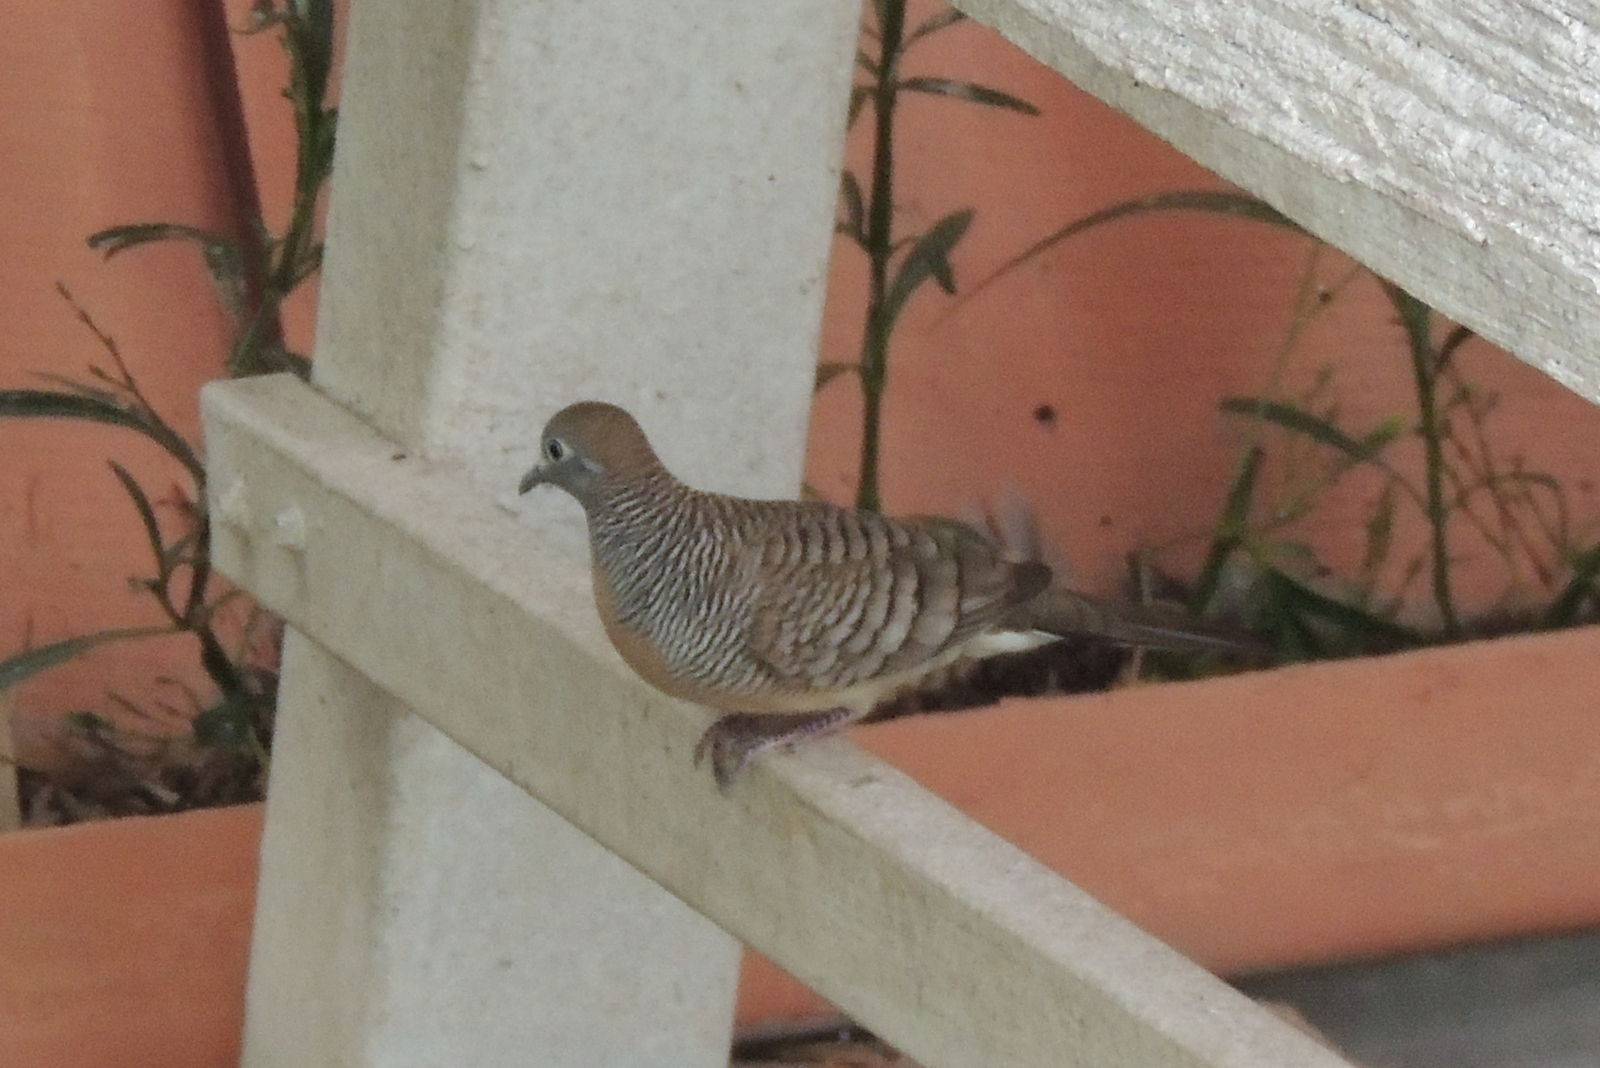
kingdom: Animalia
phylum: Chordata
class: Aves
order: Columbiformes
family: Columbidae
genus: Geopelia
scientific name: Geopelia striata
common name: Zebra dove
